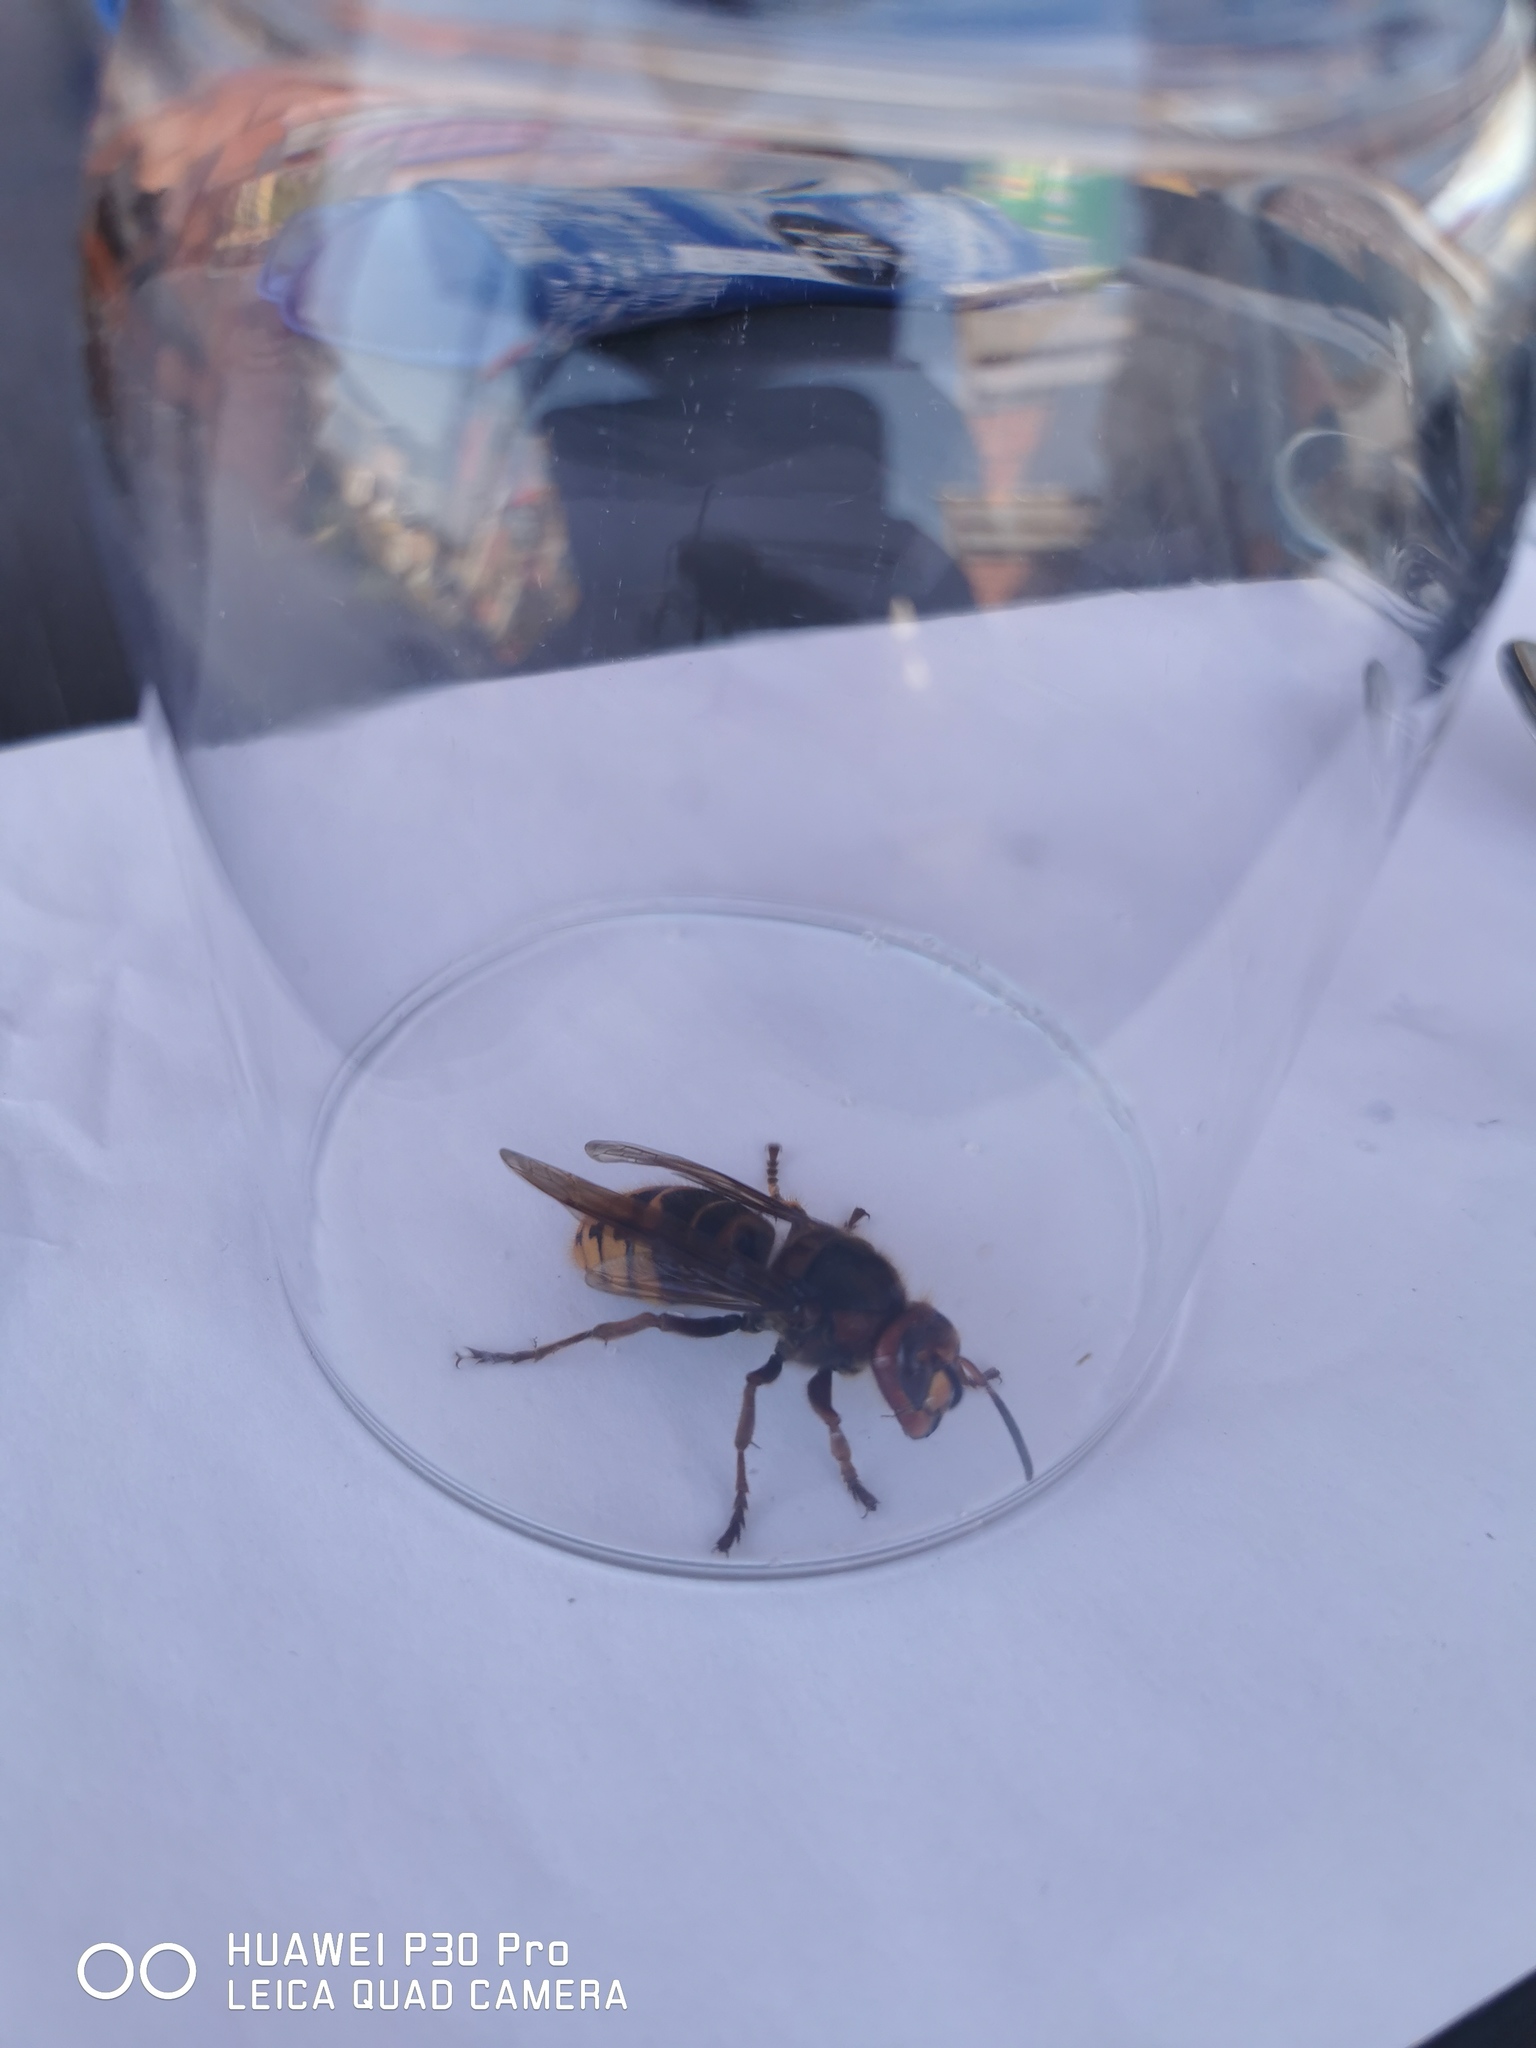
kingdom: Animalia
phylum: Arthropoda
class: Insecta
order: Hymenoptera
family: Vespidae
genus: Vespa
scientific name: Vespa crabro
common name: Hornet
